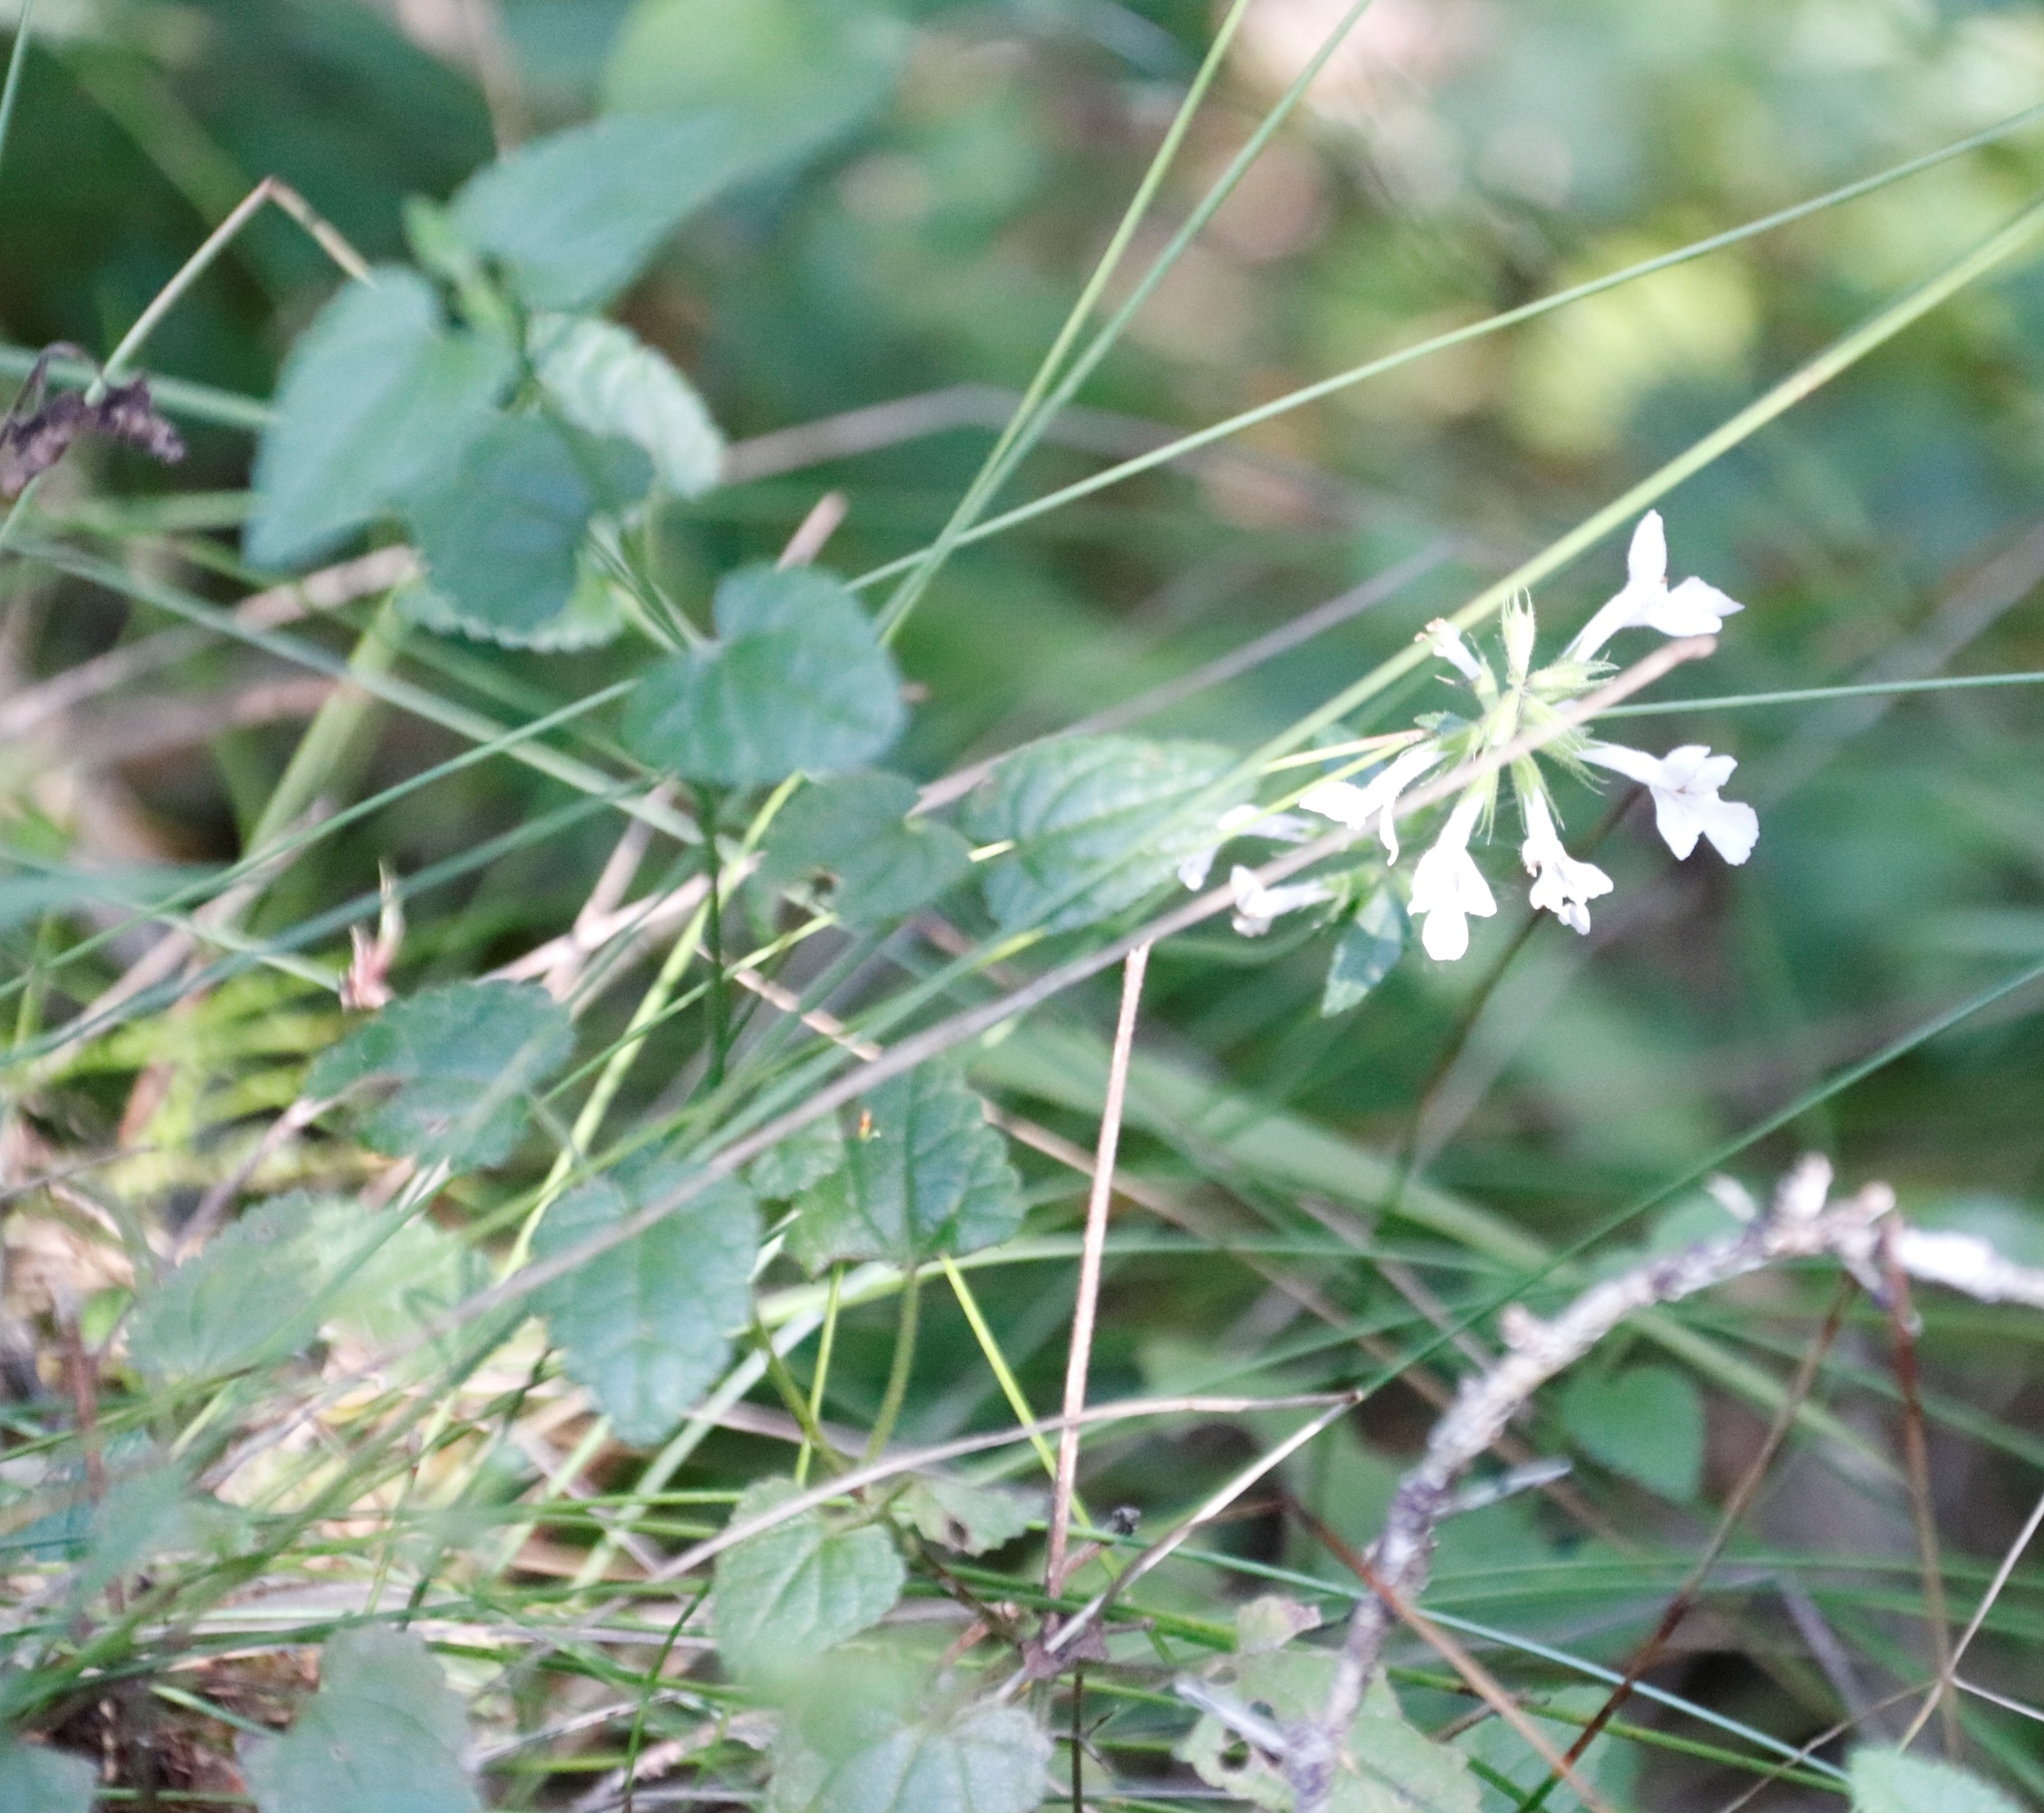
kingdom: Plantae
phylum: Tracheophyta
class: Magnoliopsida
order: Lamiales
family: Lamiaceae
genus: Stachys
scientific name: Stachys aethiopica
